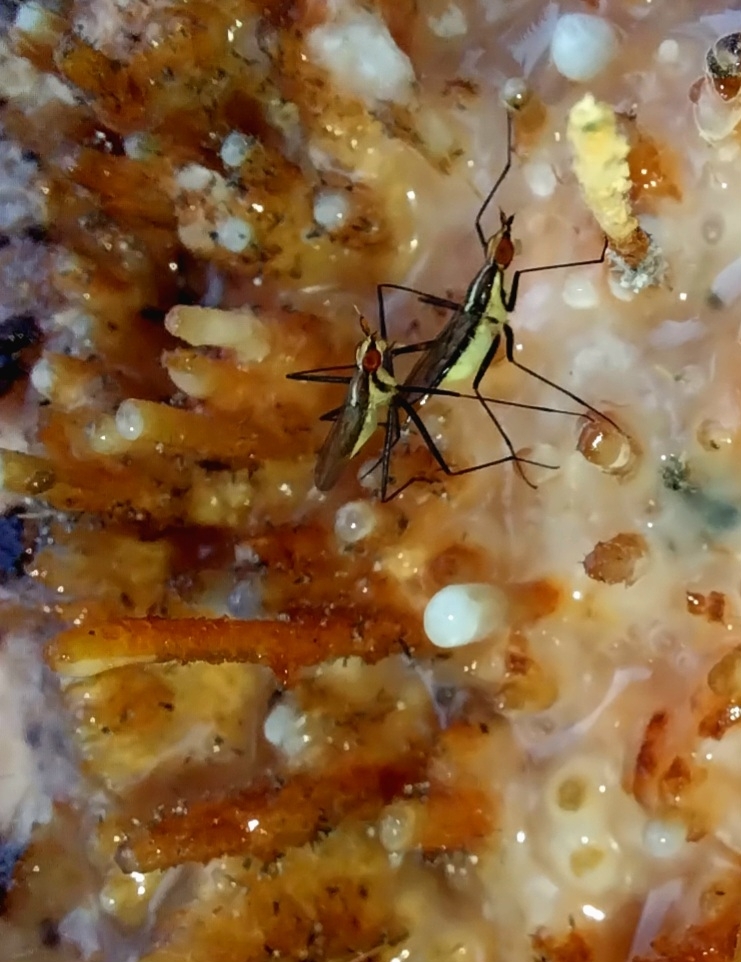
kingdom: Animalia
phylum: Arthropoda
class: Insecta
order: Diptera
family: Neriidae
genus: Telostylinus
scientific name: Telostylinus lineolatus
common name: Banana stalk fly
